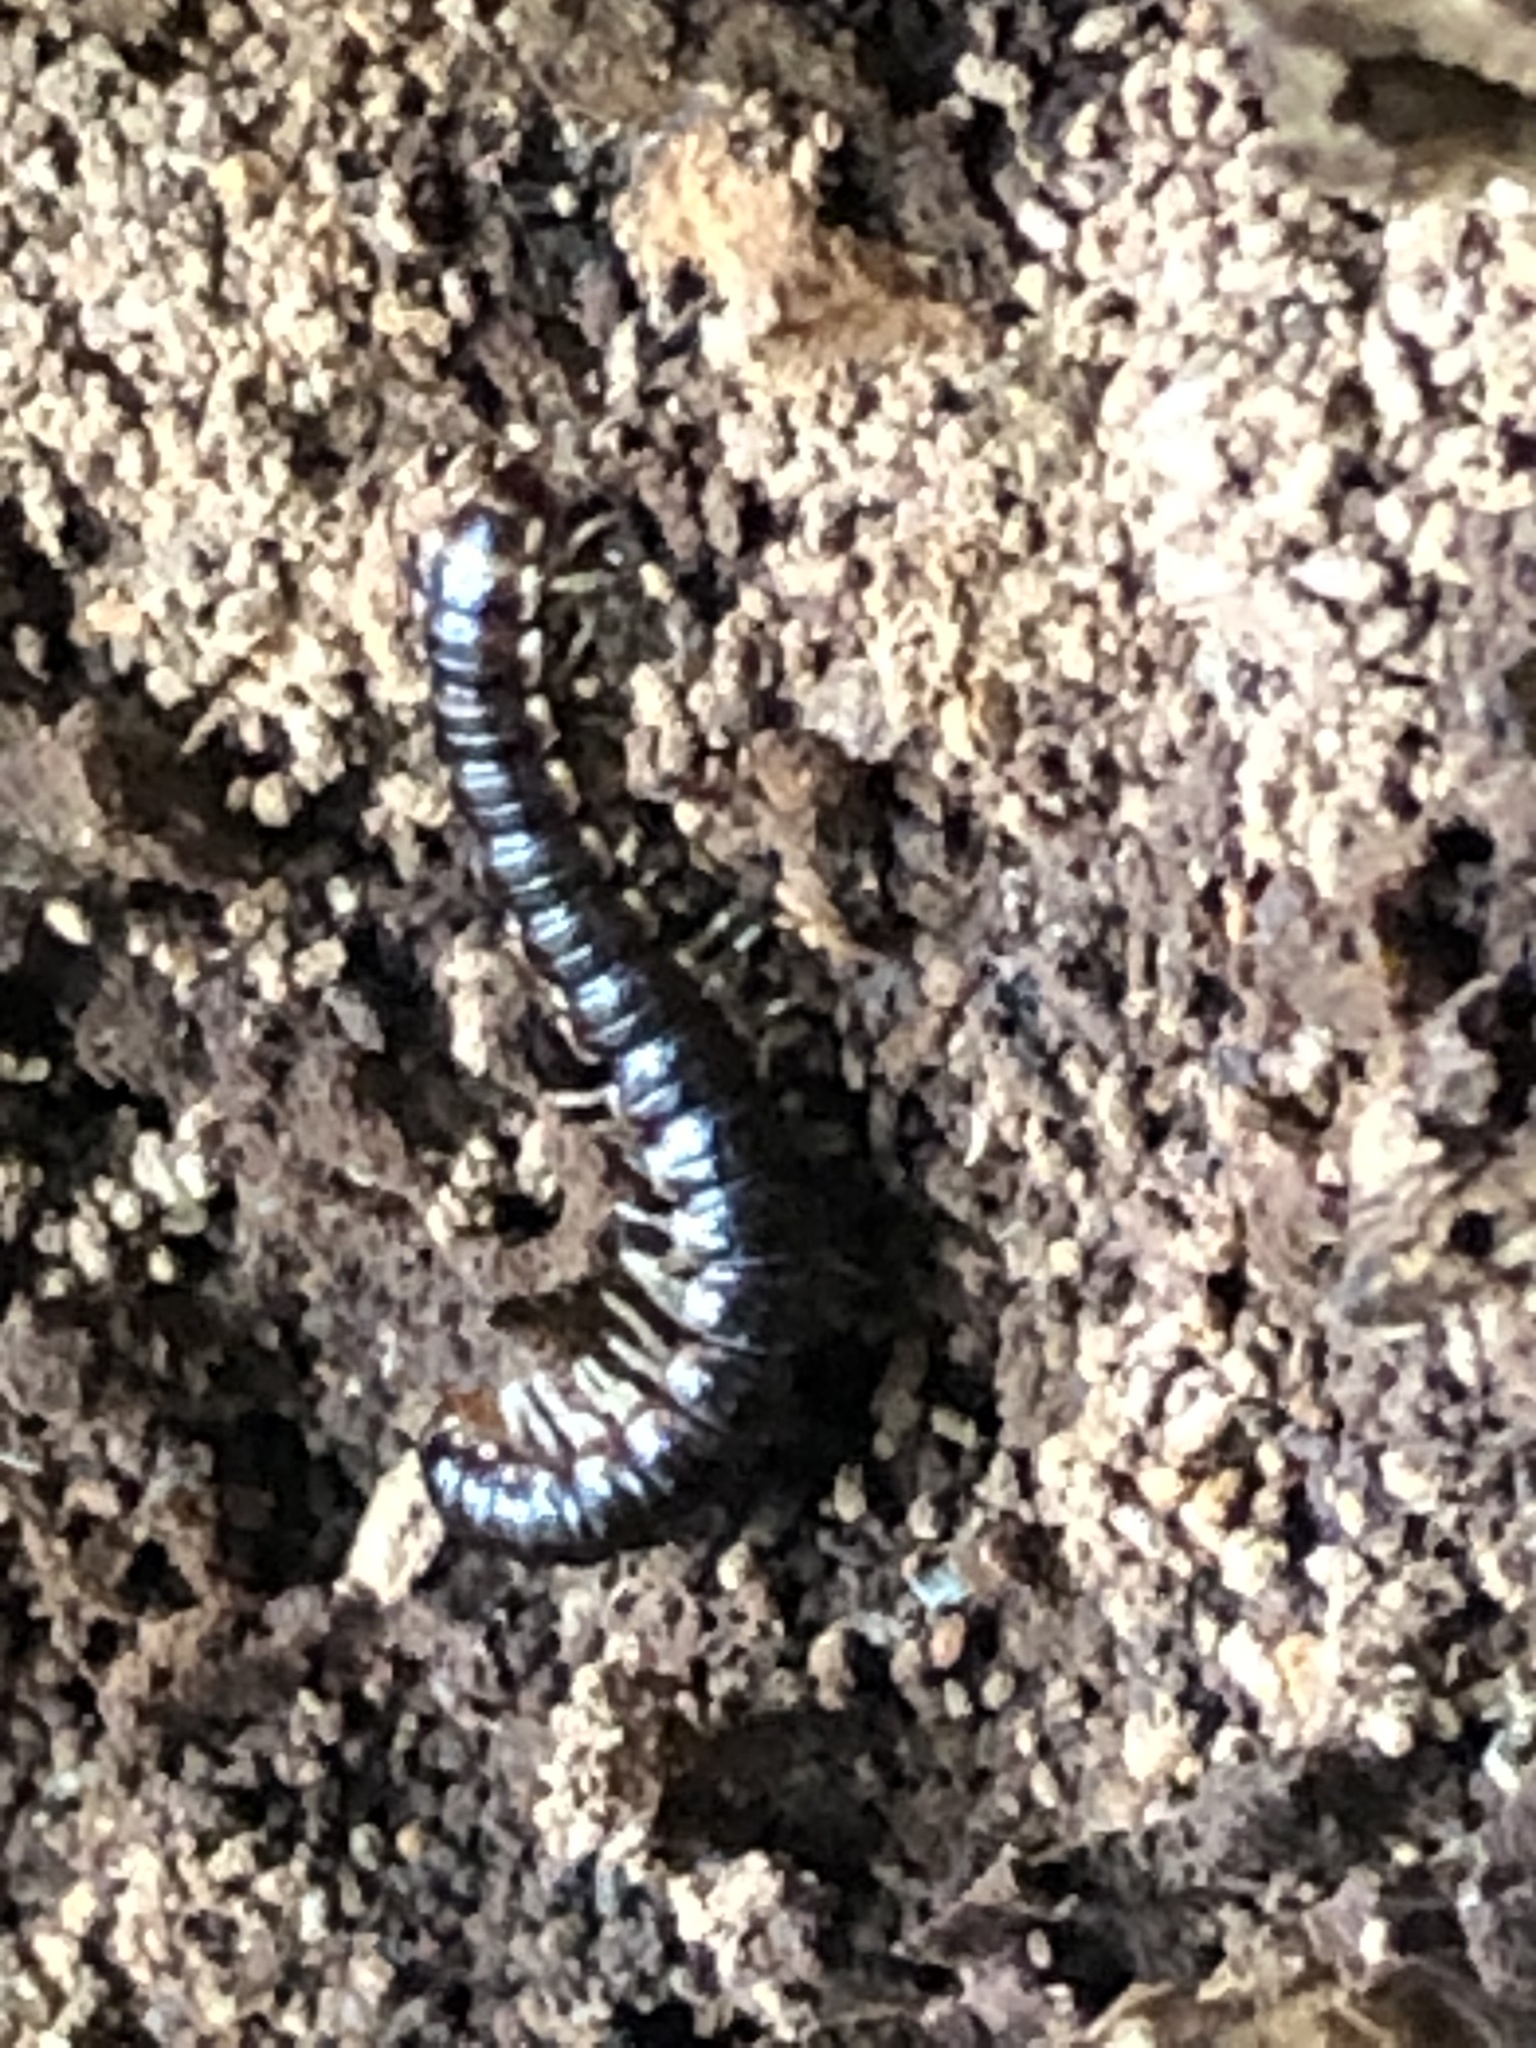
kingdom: Animalia
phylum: Arthropoda
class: Diplopoda
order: Polydesmida
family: Paradoxosomatidae
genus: Oxidus
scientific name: Oxidus gracilis
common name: Greenhouse millipede
